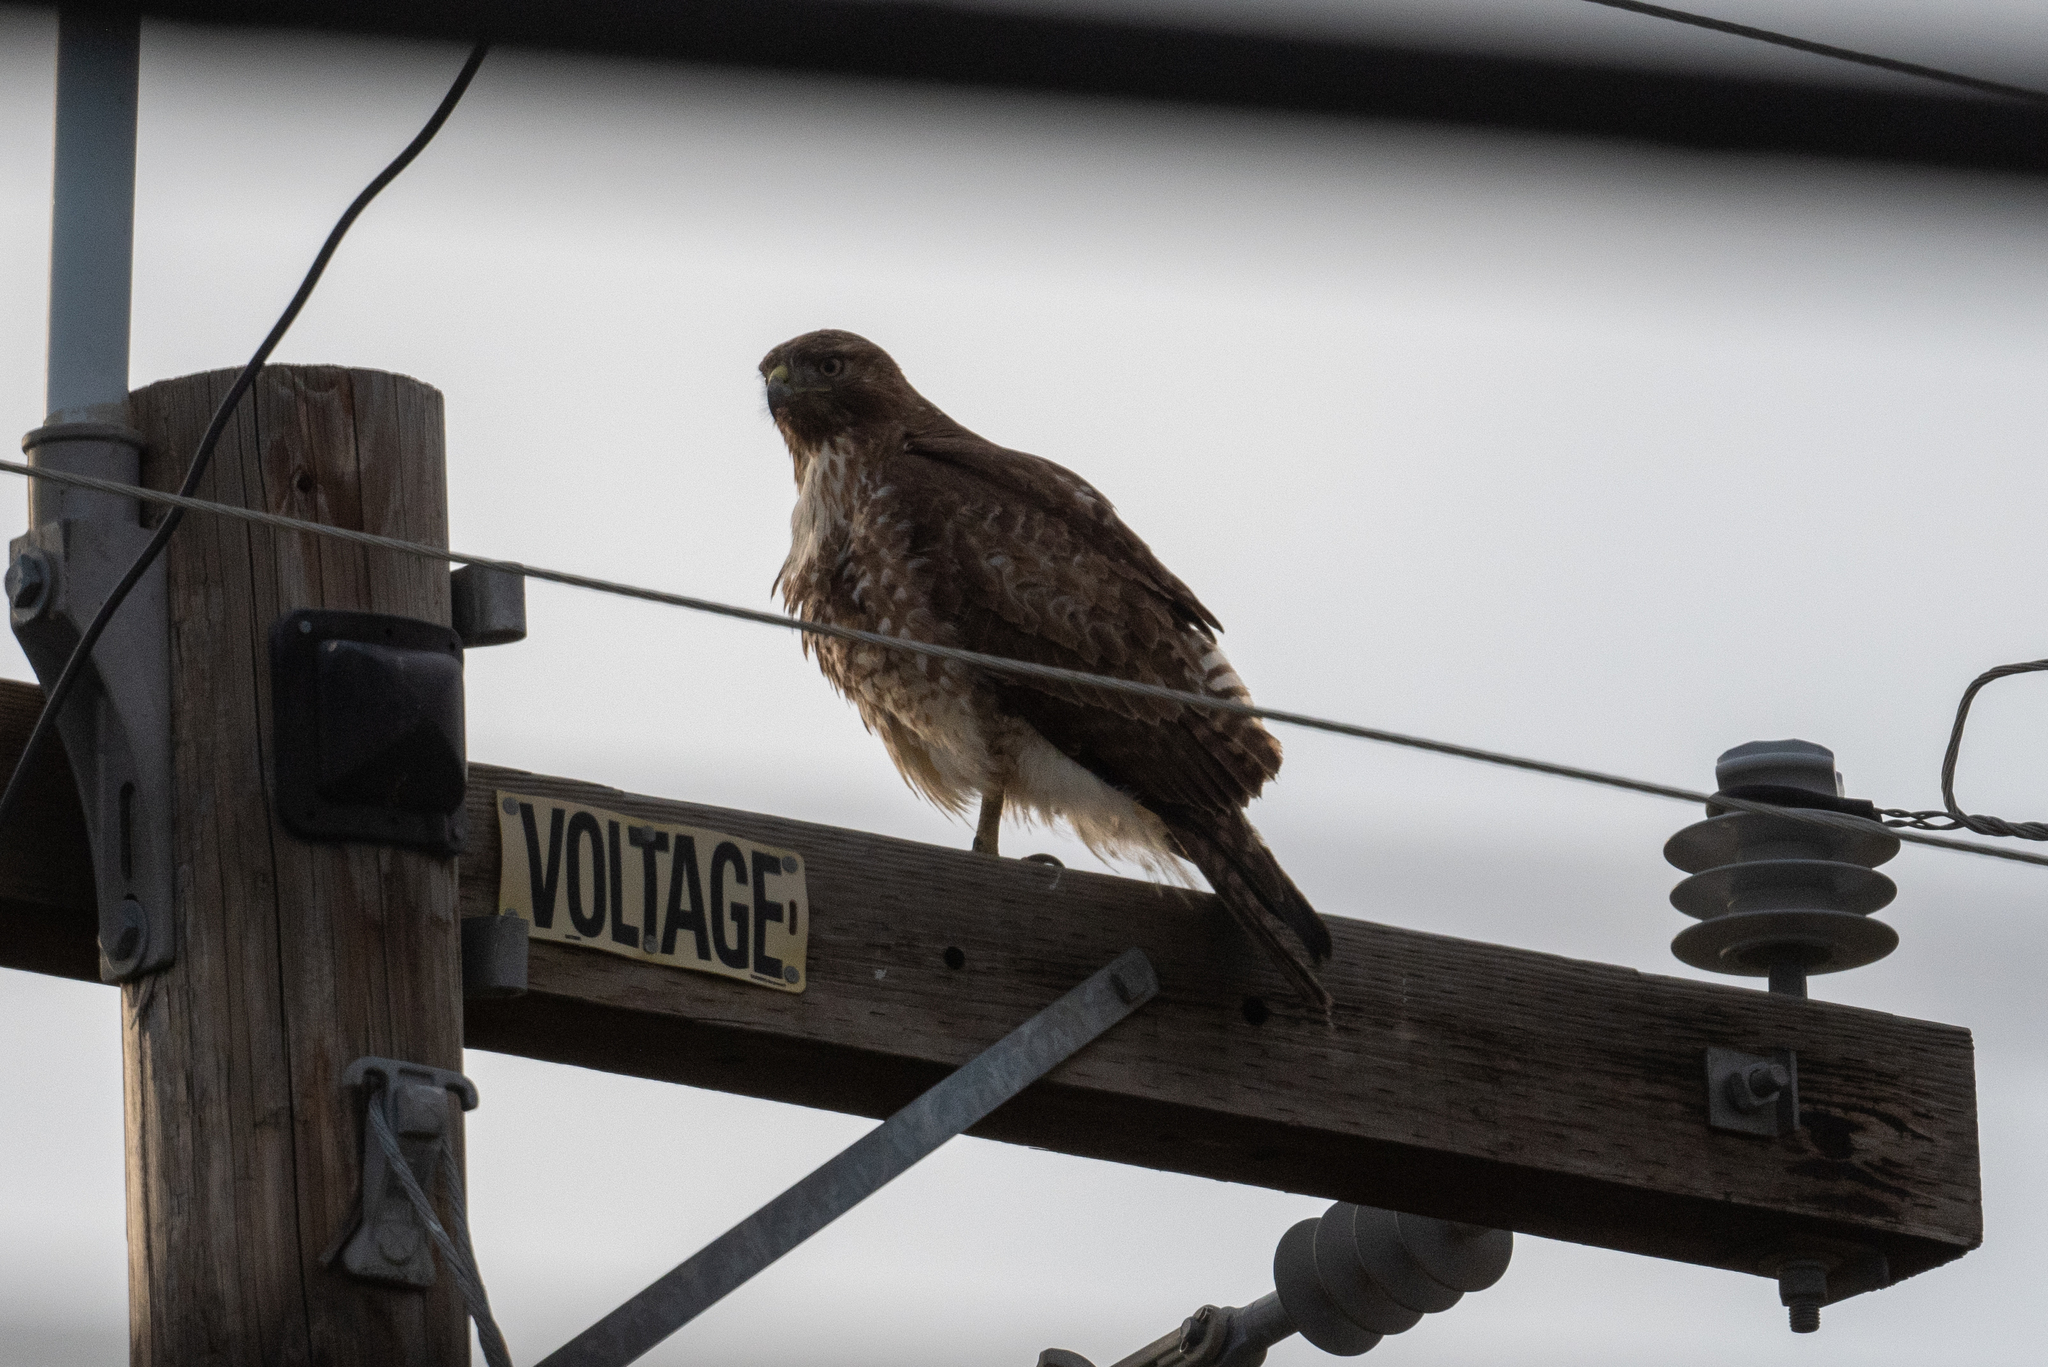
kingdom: Animalia
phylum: Chordata
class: Aves
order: Accipitriformes
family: Accipitridae
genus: Buteo
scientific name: Buteo jamaicensis
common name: Red-tailed hawk
